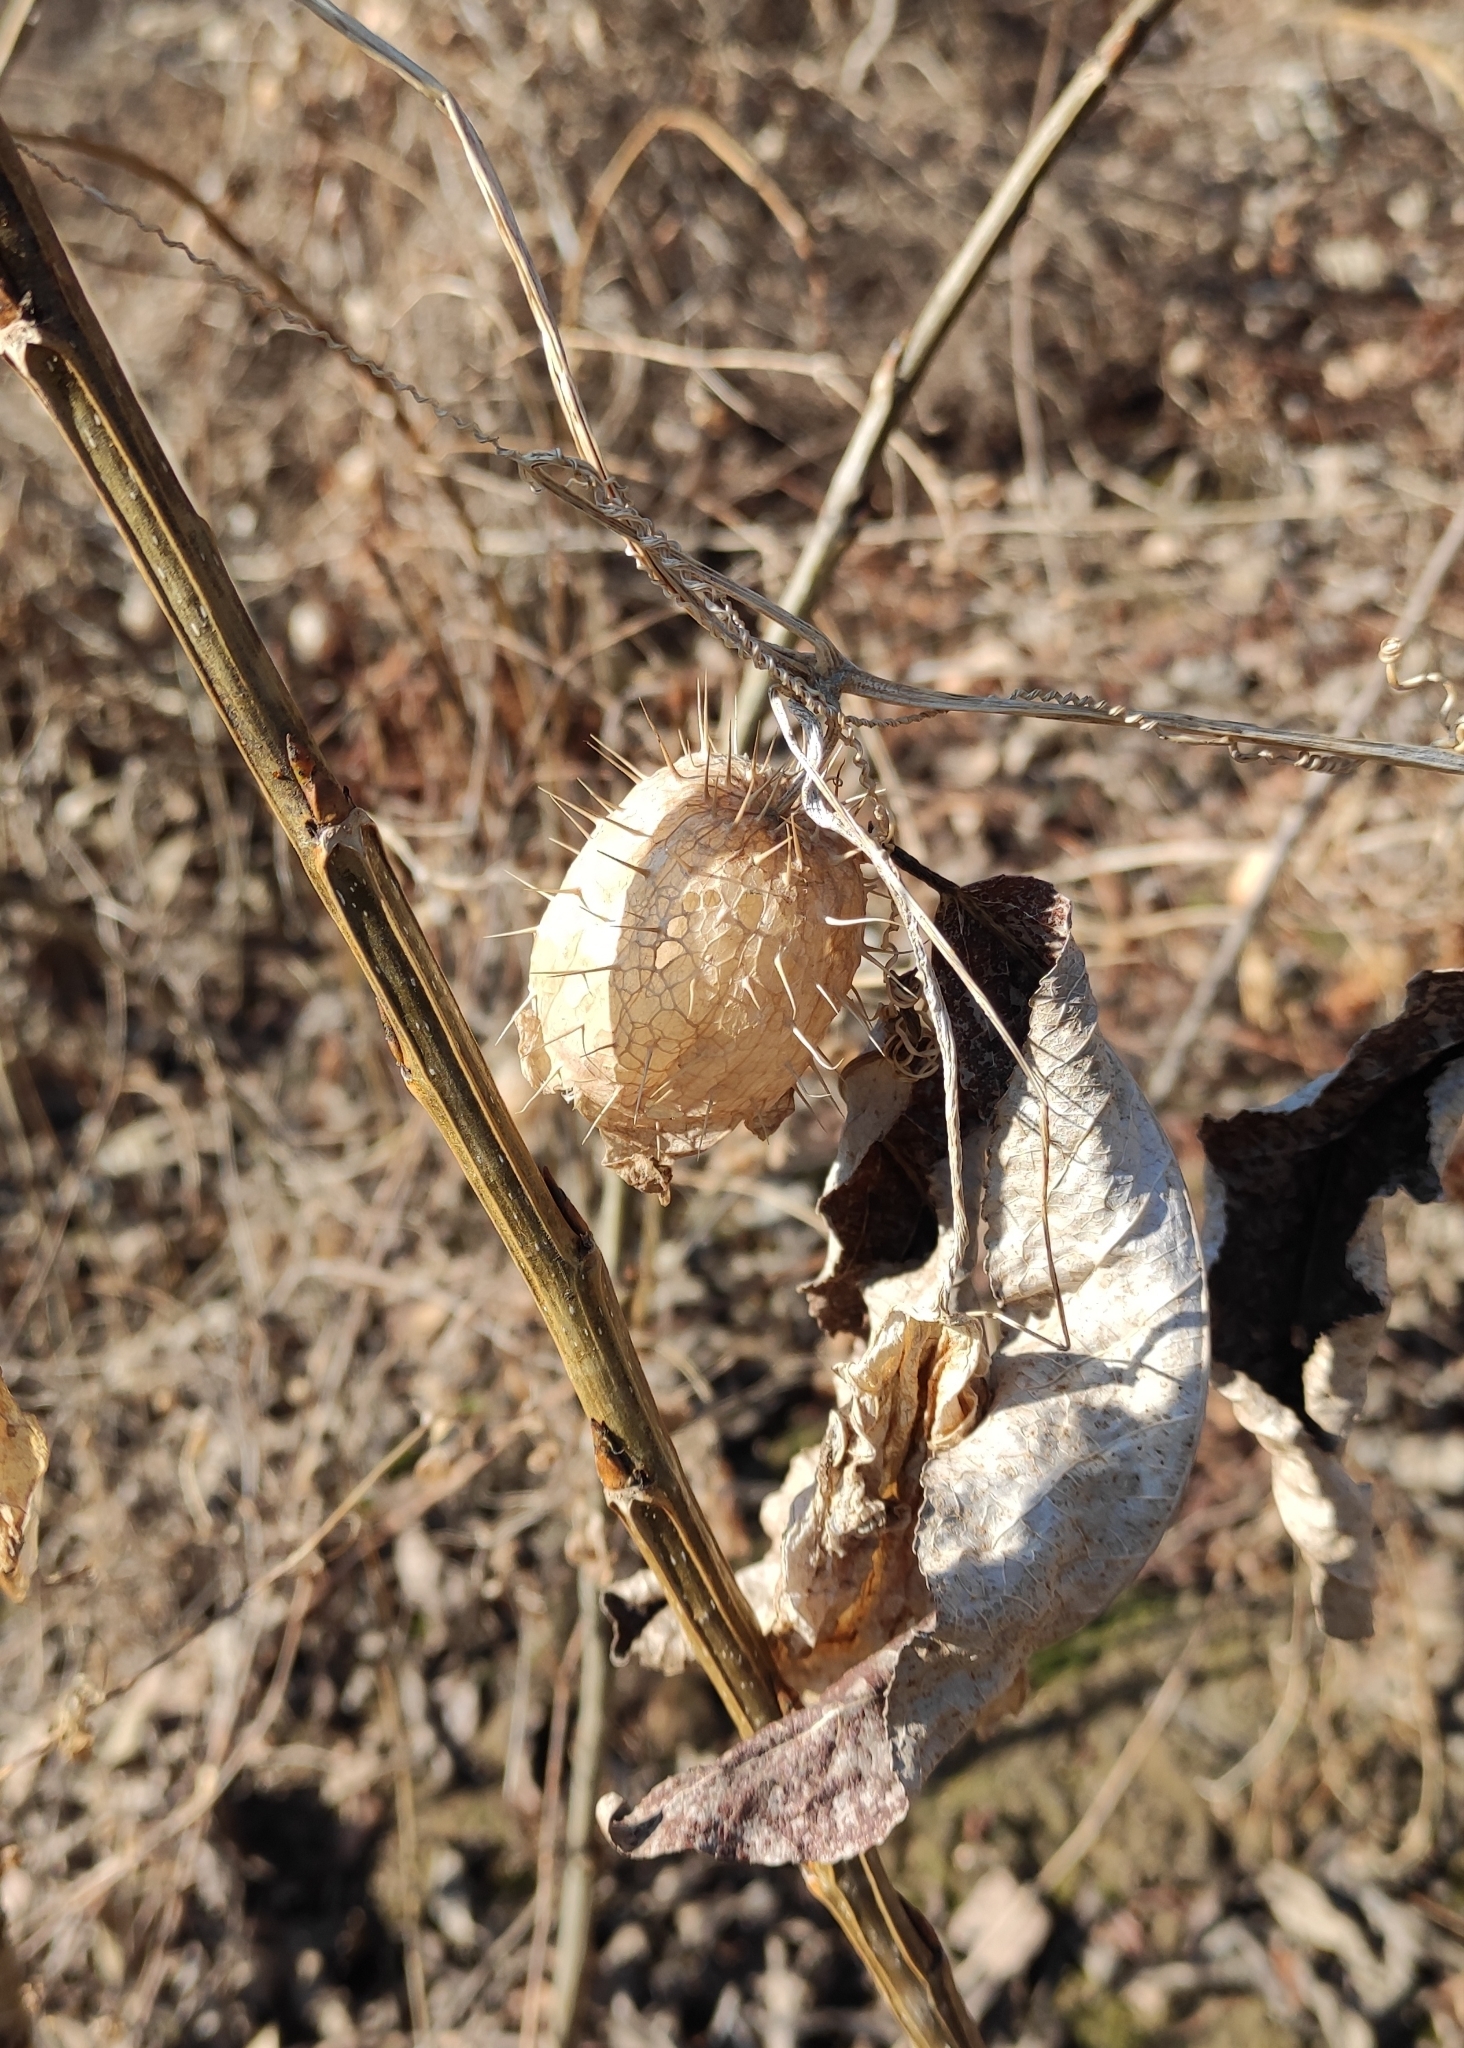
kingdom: Plantae
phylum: Tracheophyta
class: Magnoliopsida
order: Cucurbitales
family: Cucurbitaceae
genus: Echinocystis
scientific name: Echinocystis lobata
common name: Wild cucumber
